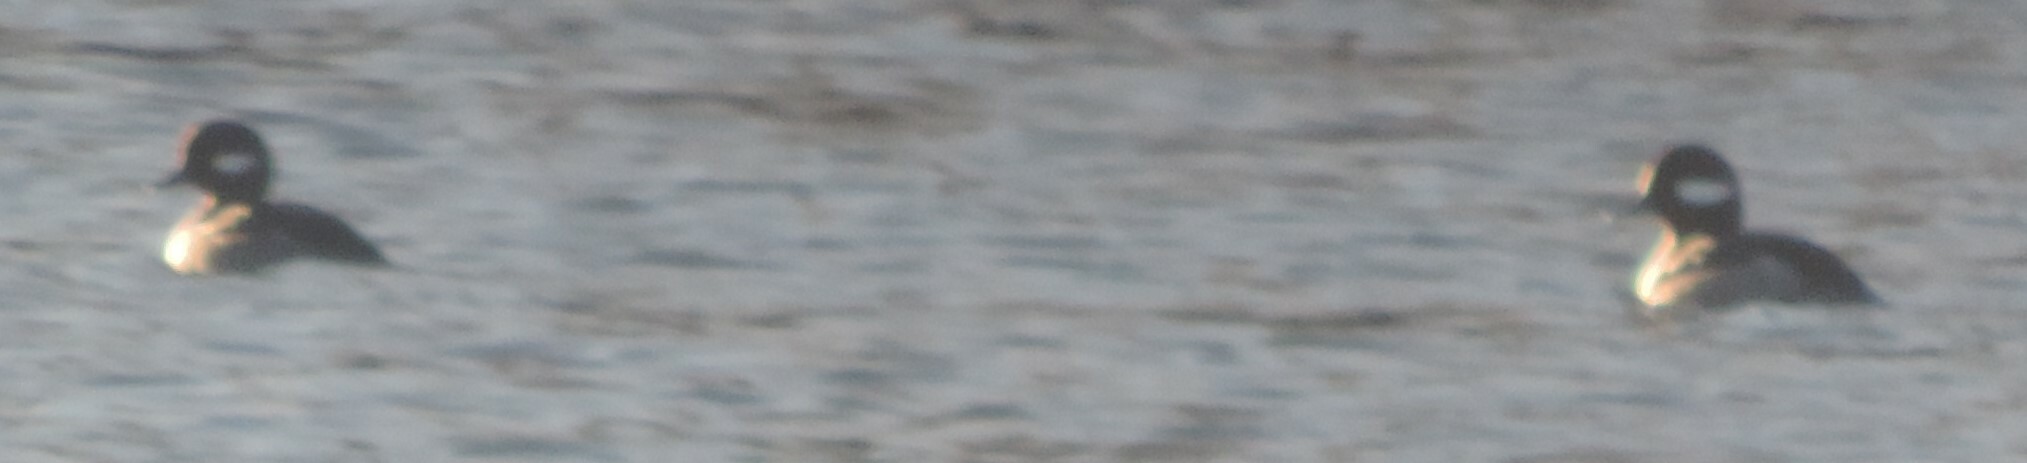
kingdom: Animalia
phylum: Chordata
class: Aves
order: Anseriformes
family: Anatidae
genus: Bucephala
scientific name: Bucephala albeola
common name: Bufflehead
